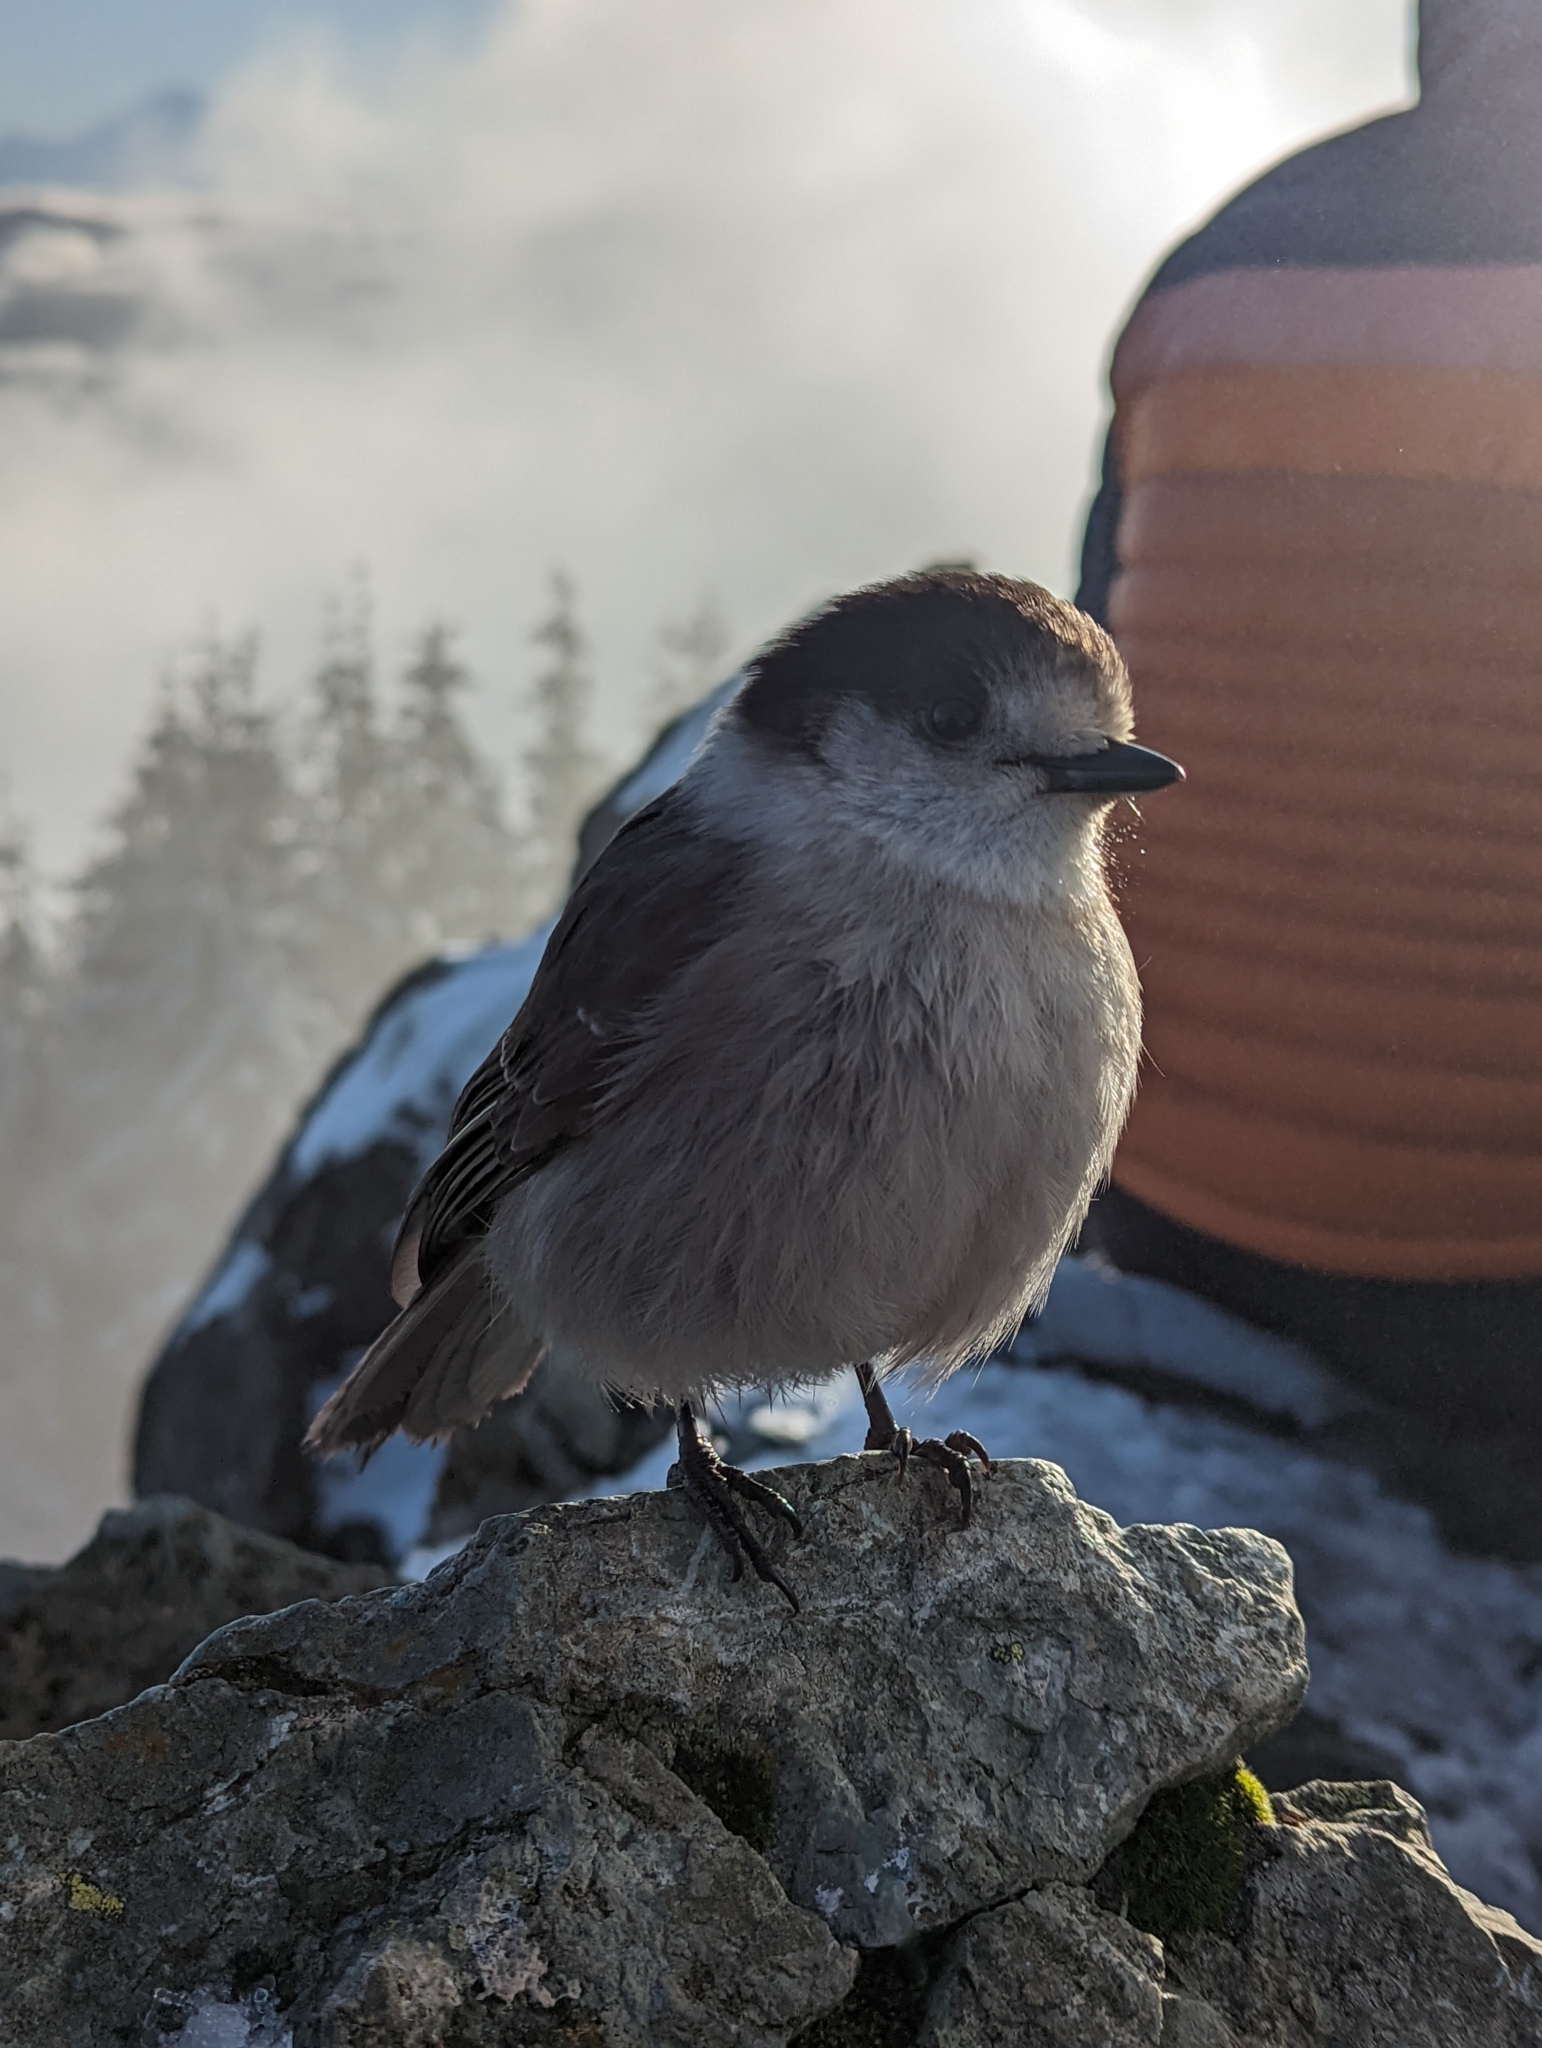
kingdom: Animalia
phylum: Chordata
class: Aves
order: Passeriformes
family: Corvidae
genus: Perisoreus
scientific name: Perisoreus canadensis
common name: Gray jay
